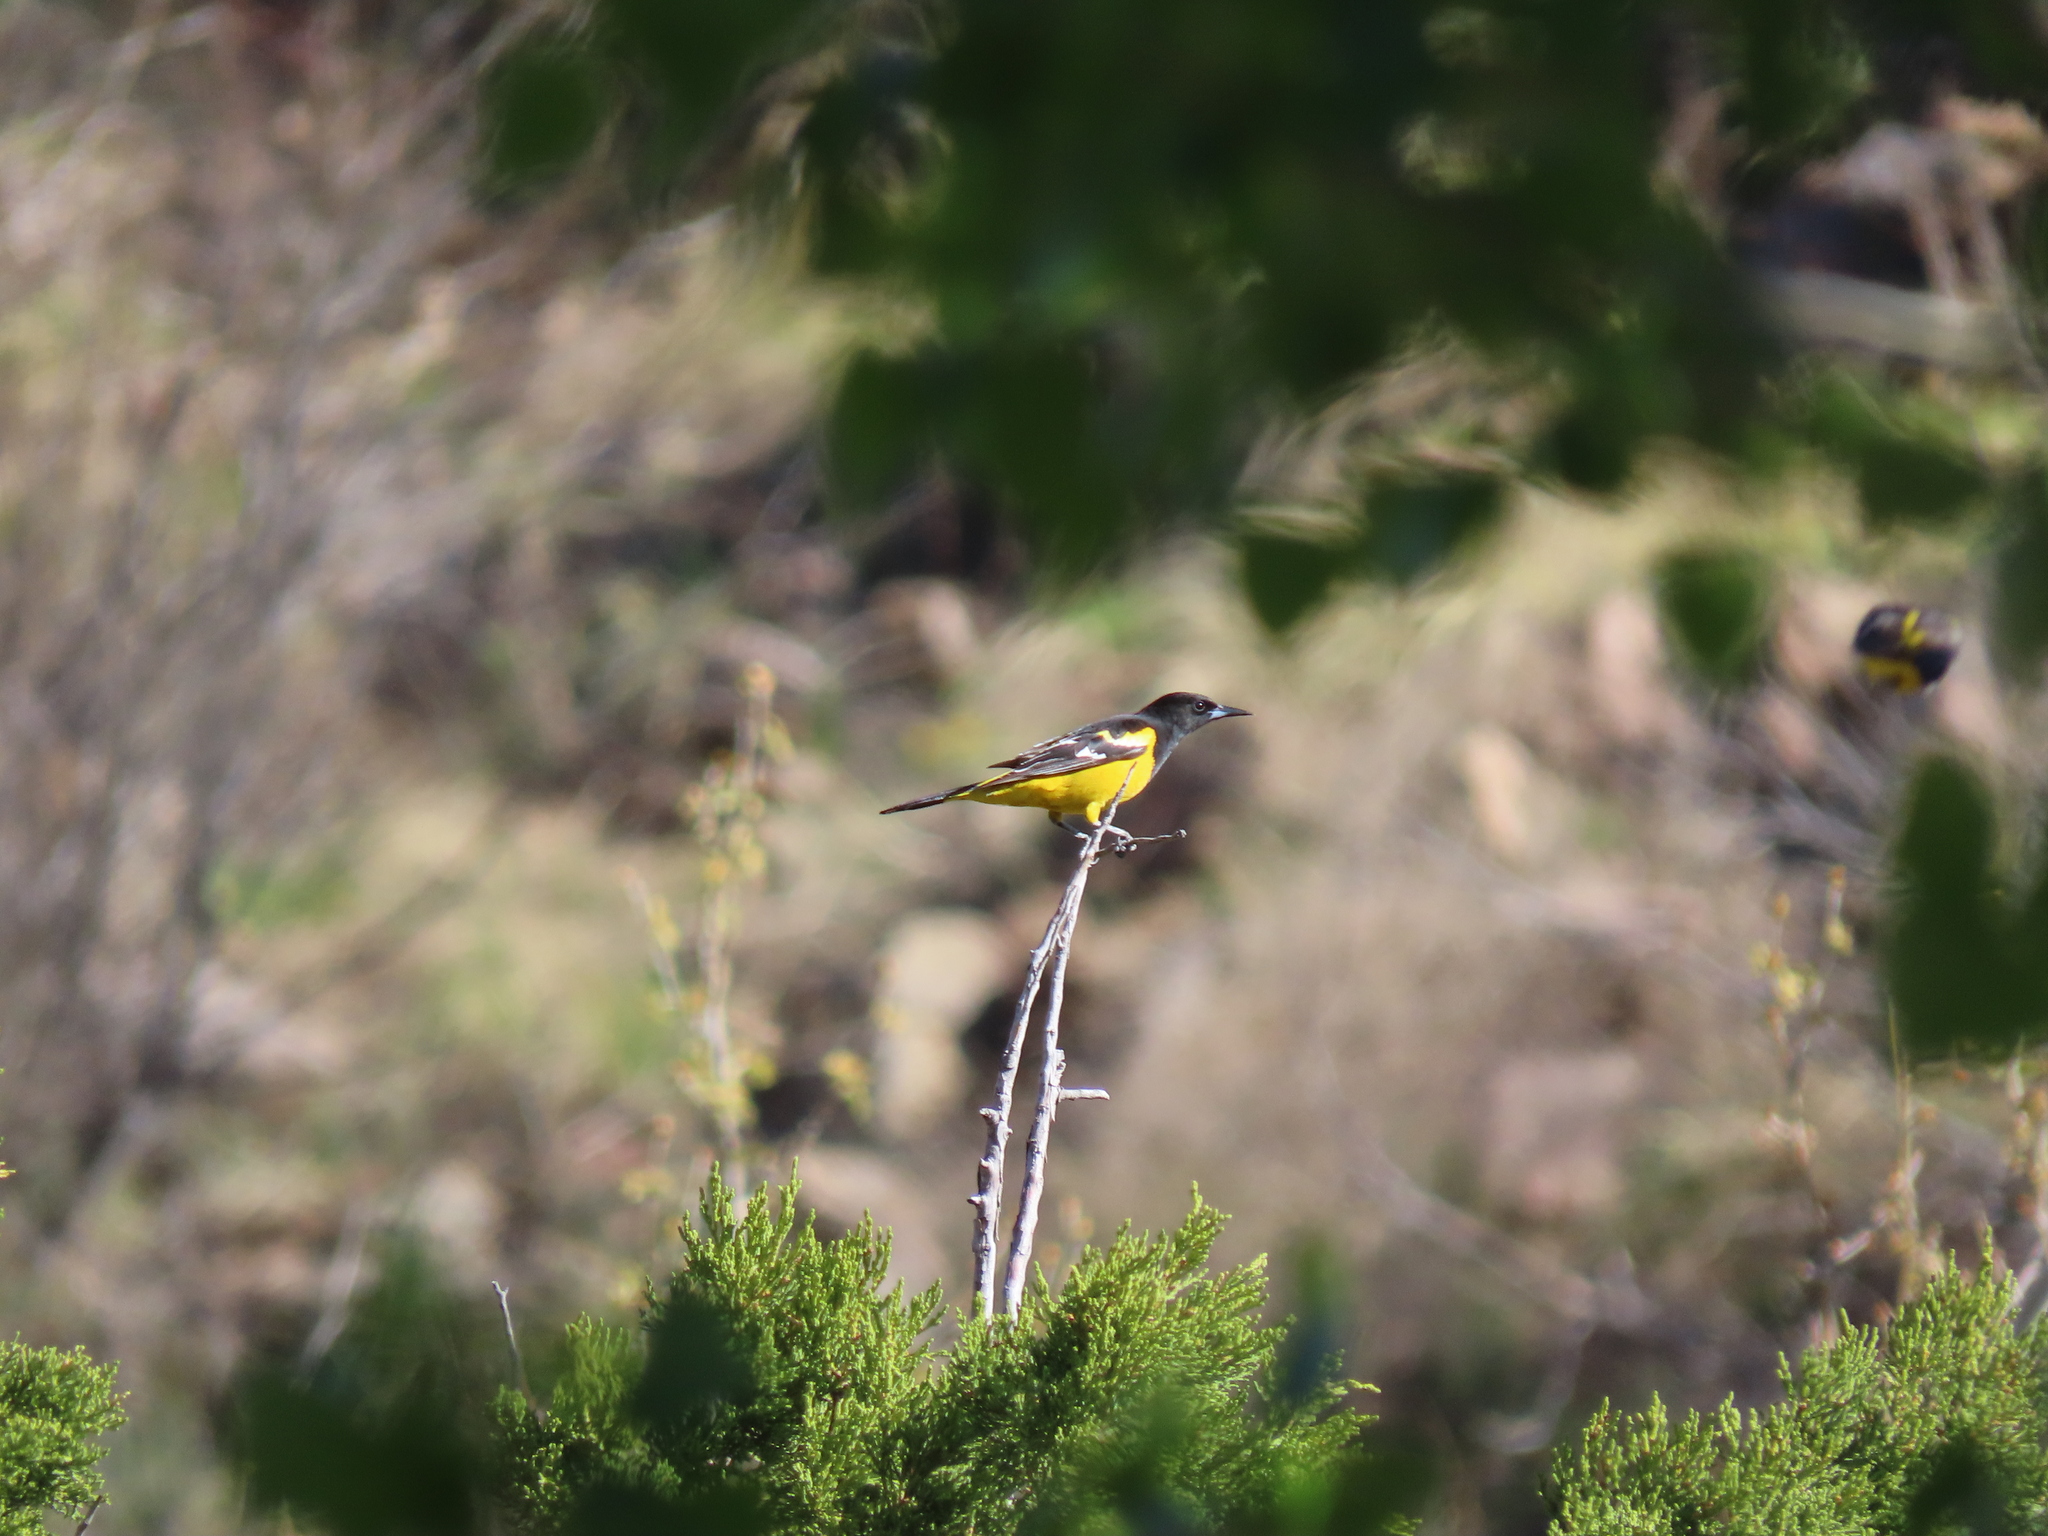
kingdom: Animalia
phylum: Chordata
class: Aves
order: Passeriformes
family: Icteridae
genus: Icterus
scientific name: Icterus parisorum
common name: Scott's oriole
